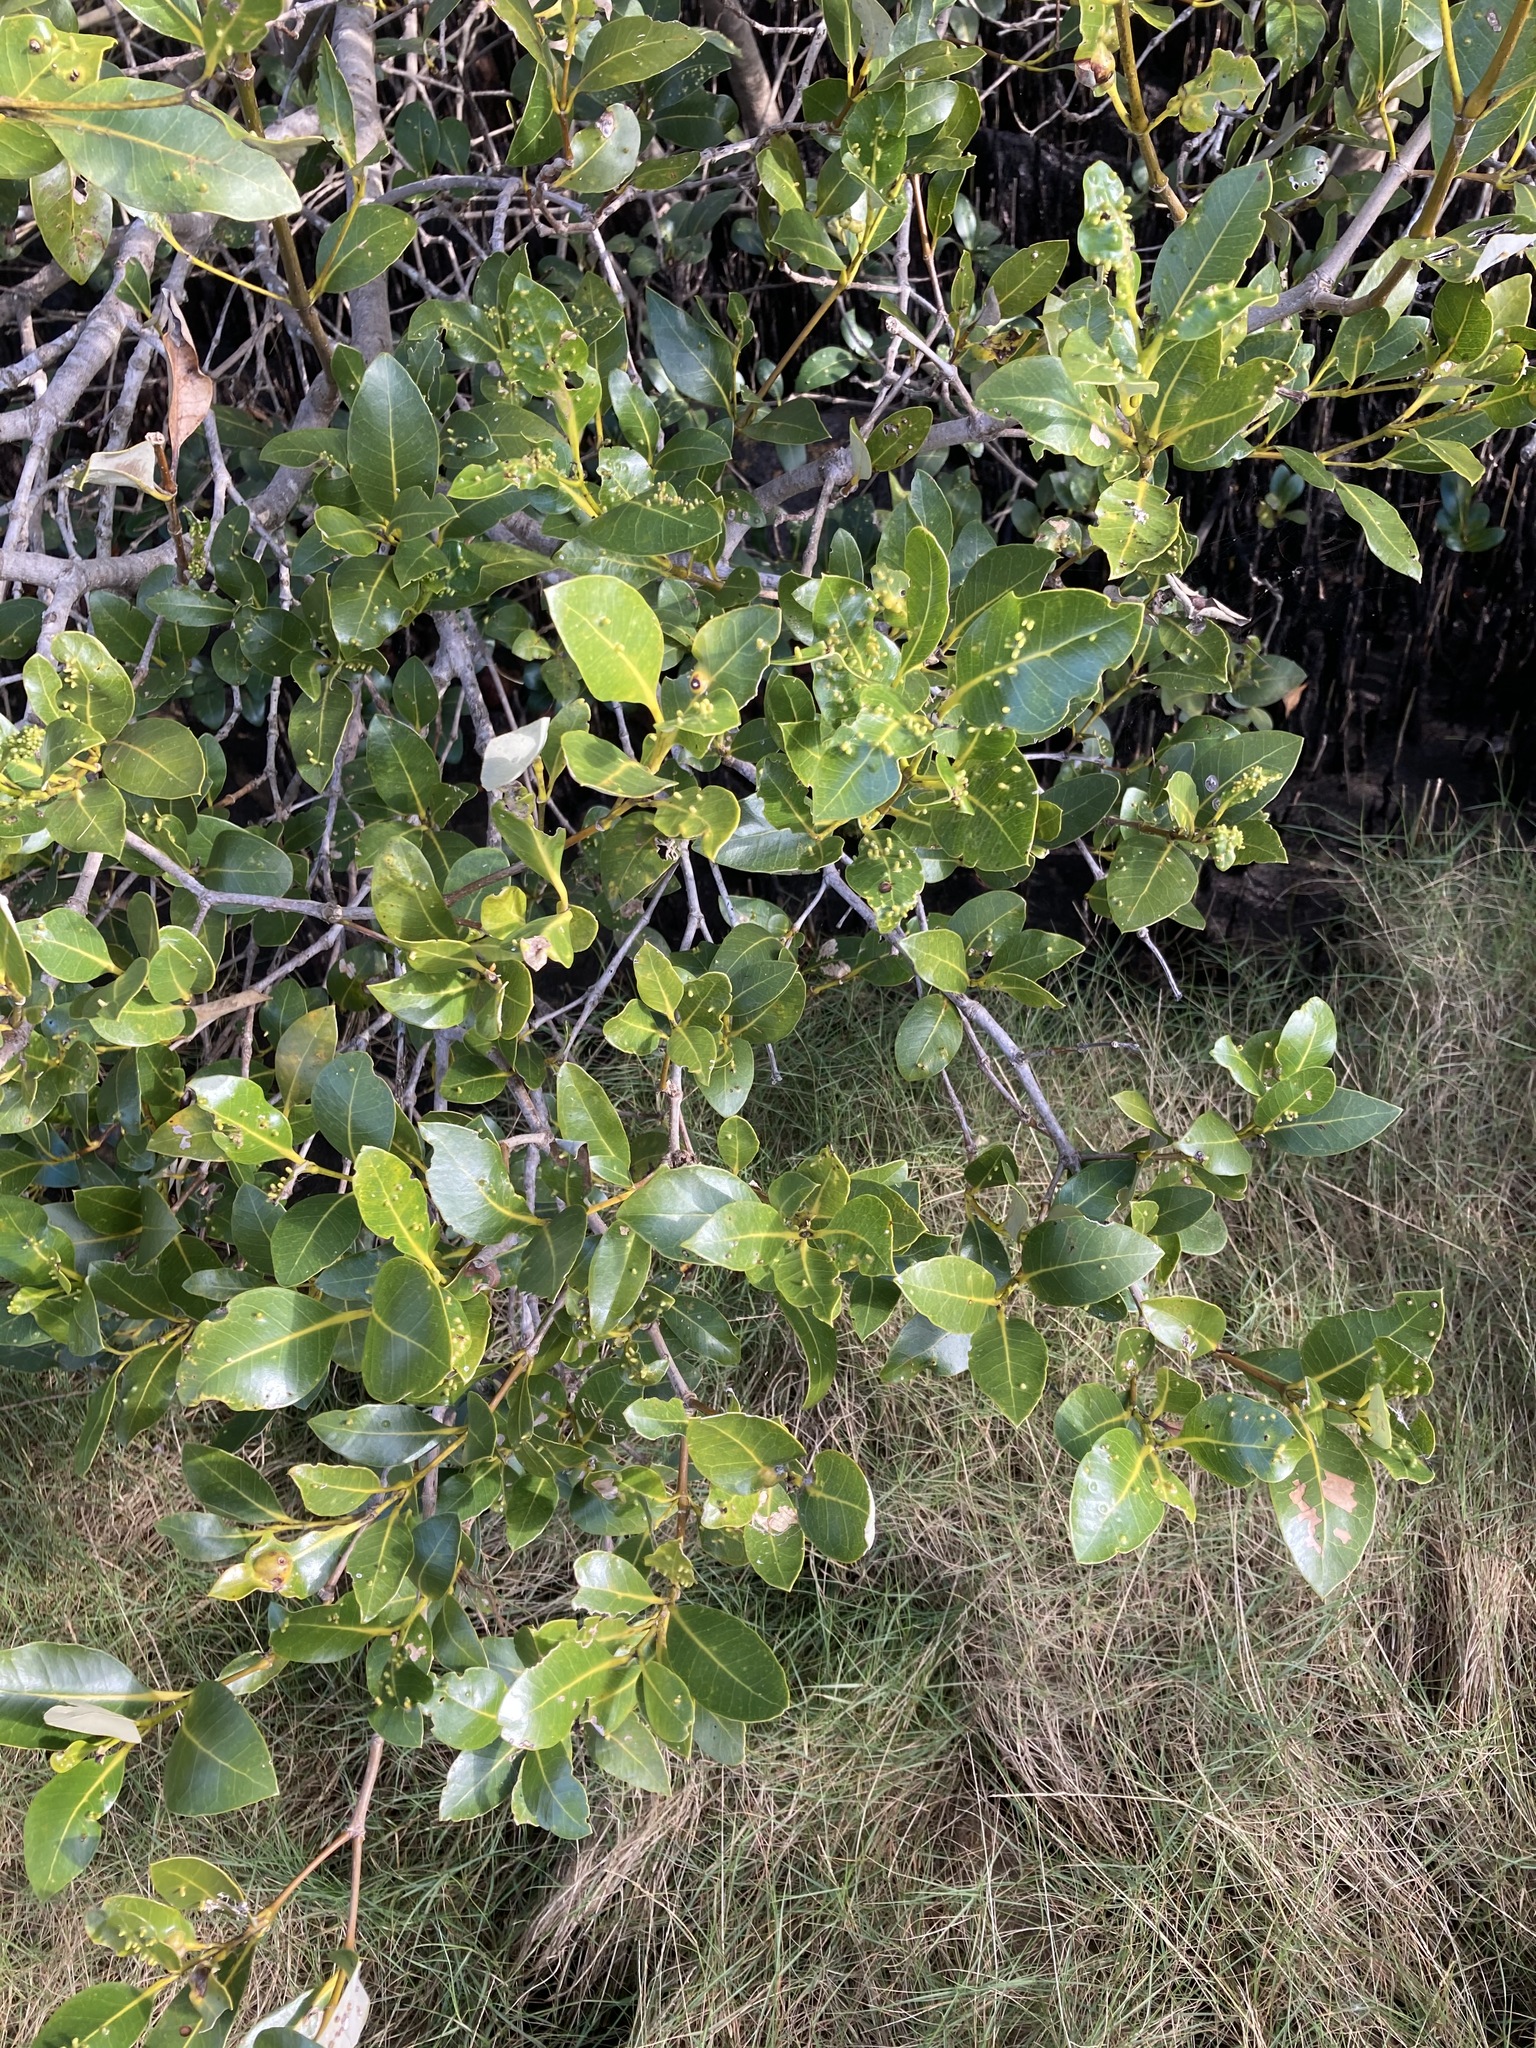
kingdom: Plantae
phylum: Tracheophyta
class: Magnoliopsida
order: Lamiales
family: Acanthaceae
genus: Avicennia
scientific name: Avicennia marina
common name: Gray mangrove
